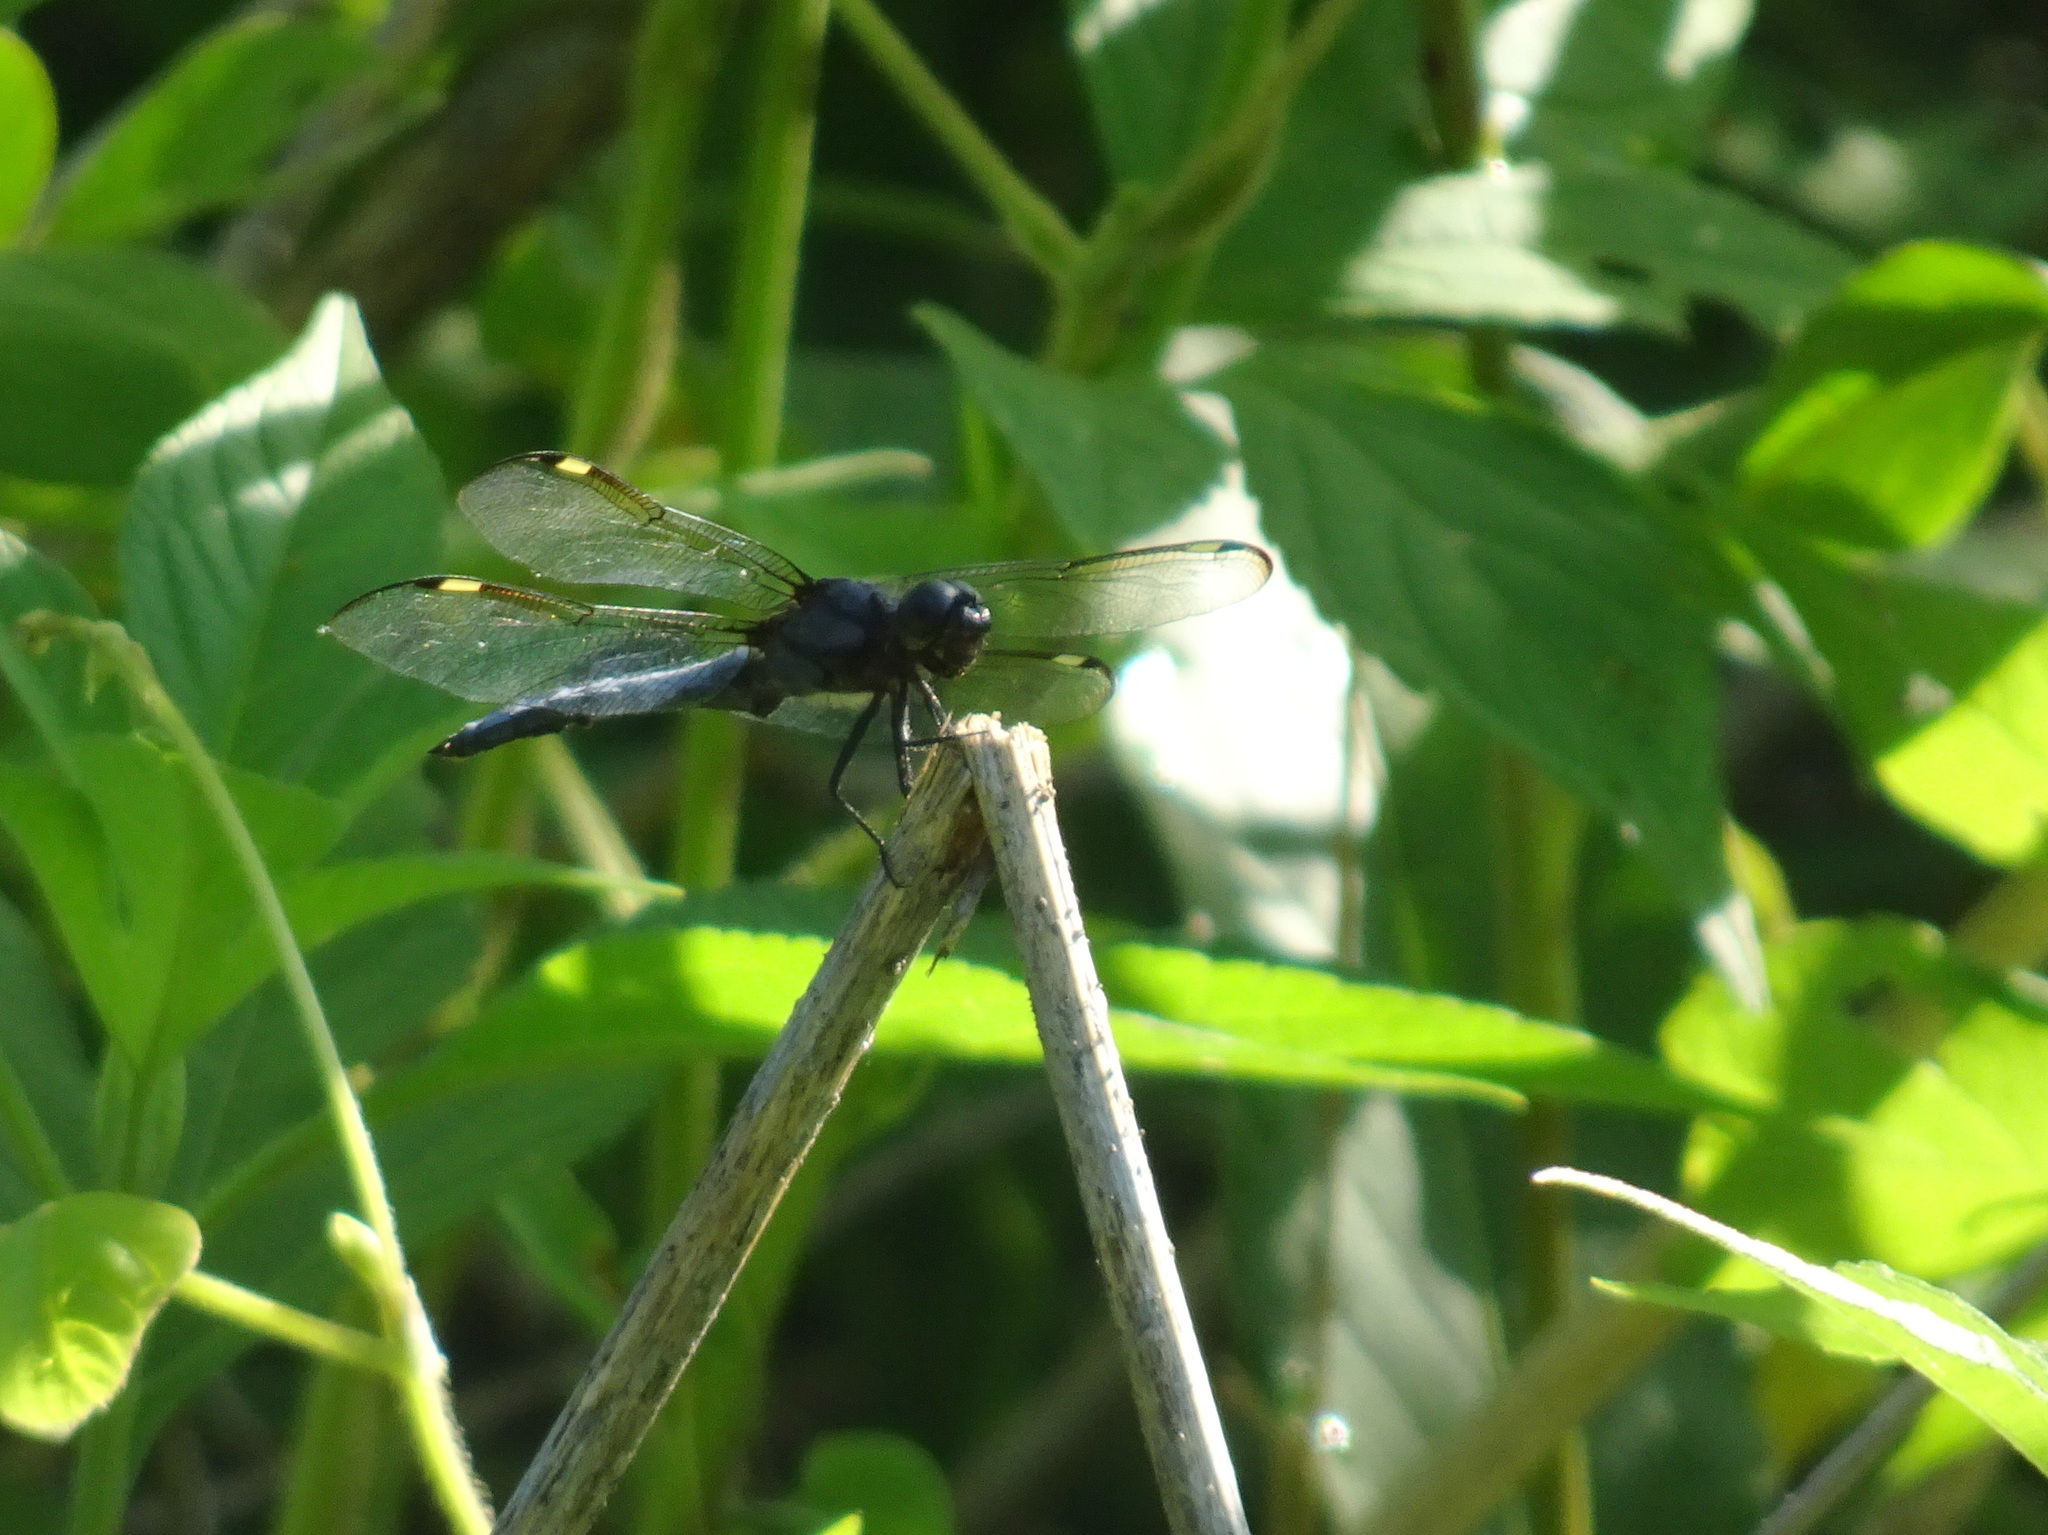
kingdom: Animalia
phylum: Arthropoda
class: Insecta
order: Odonata
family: Libellulidae
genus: Libellula
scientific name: Libellula cyanea
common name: Spangled skimmer
